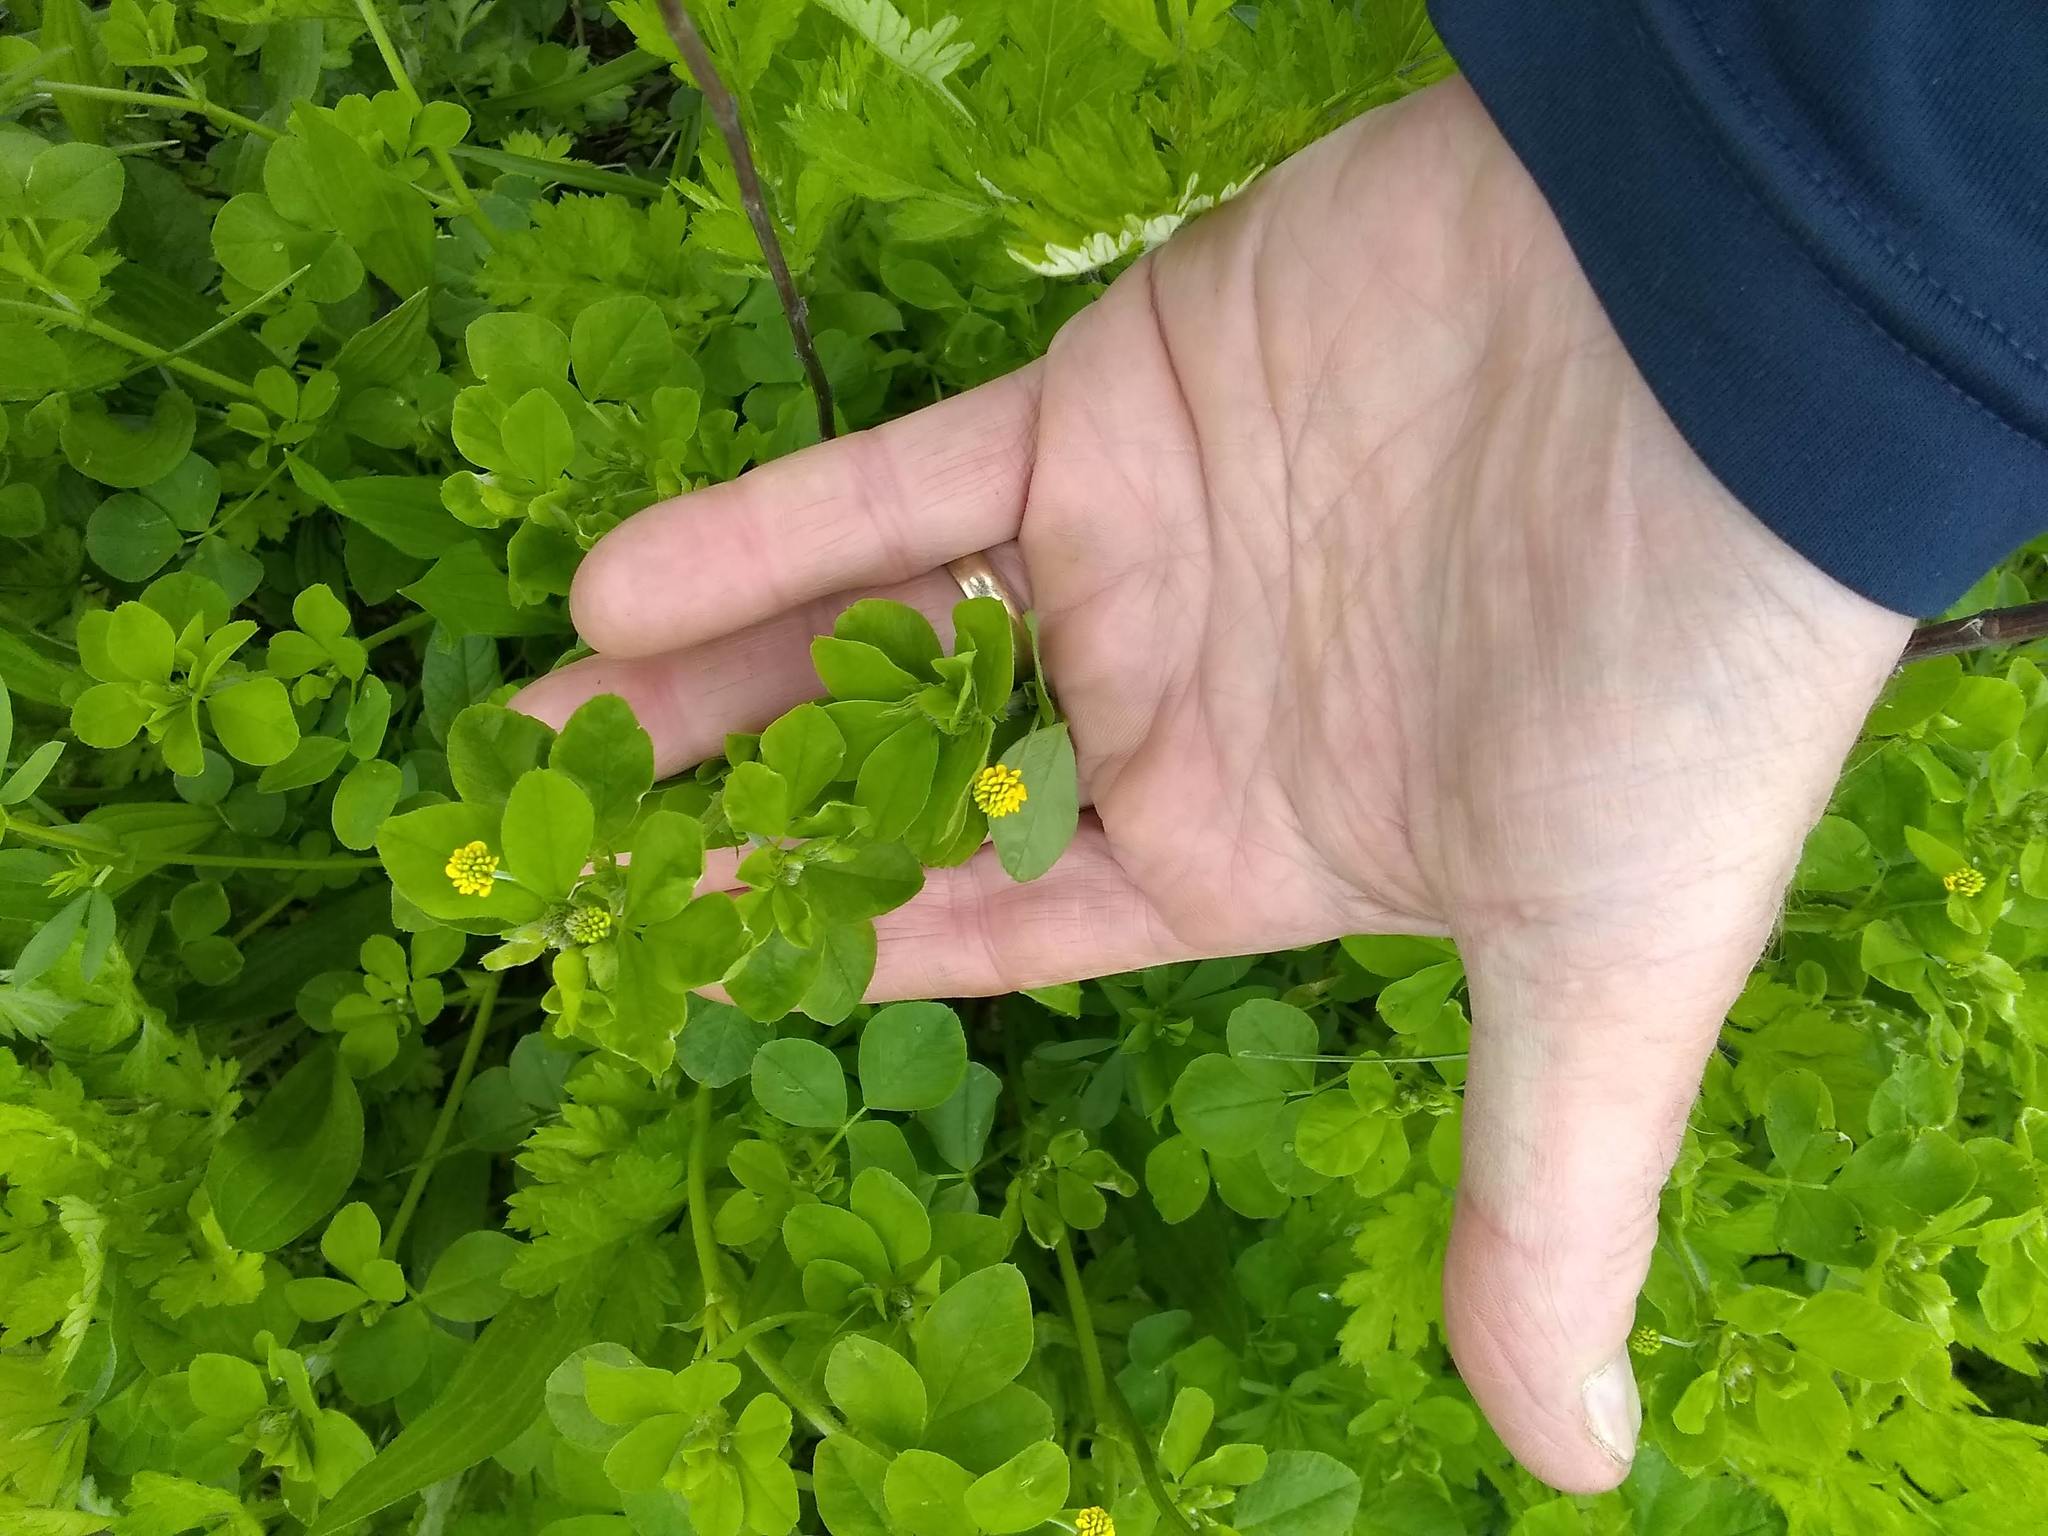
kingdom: Plantae
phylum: Tracheophyta
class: Magnoliopsida
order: Fabales
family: Fabaceae
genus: Medicago
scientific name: Medicago lupulina
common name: Black medick
